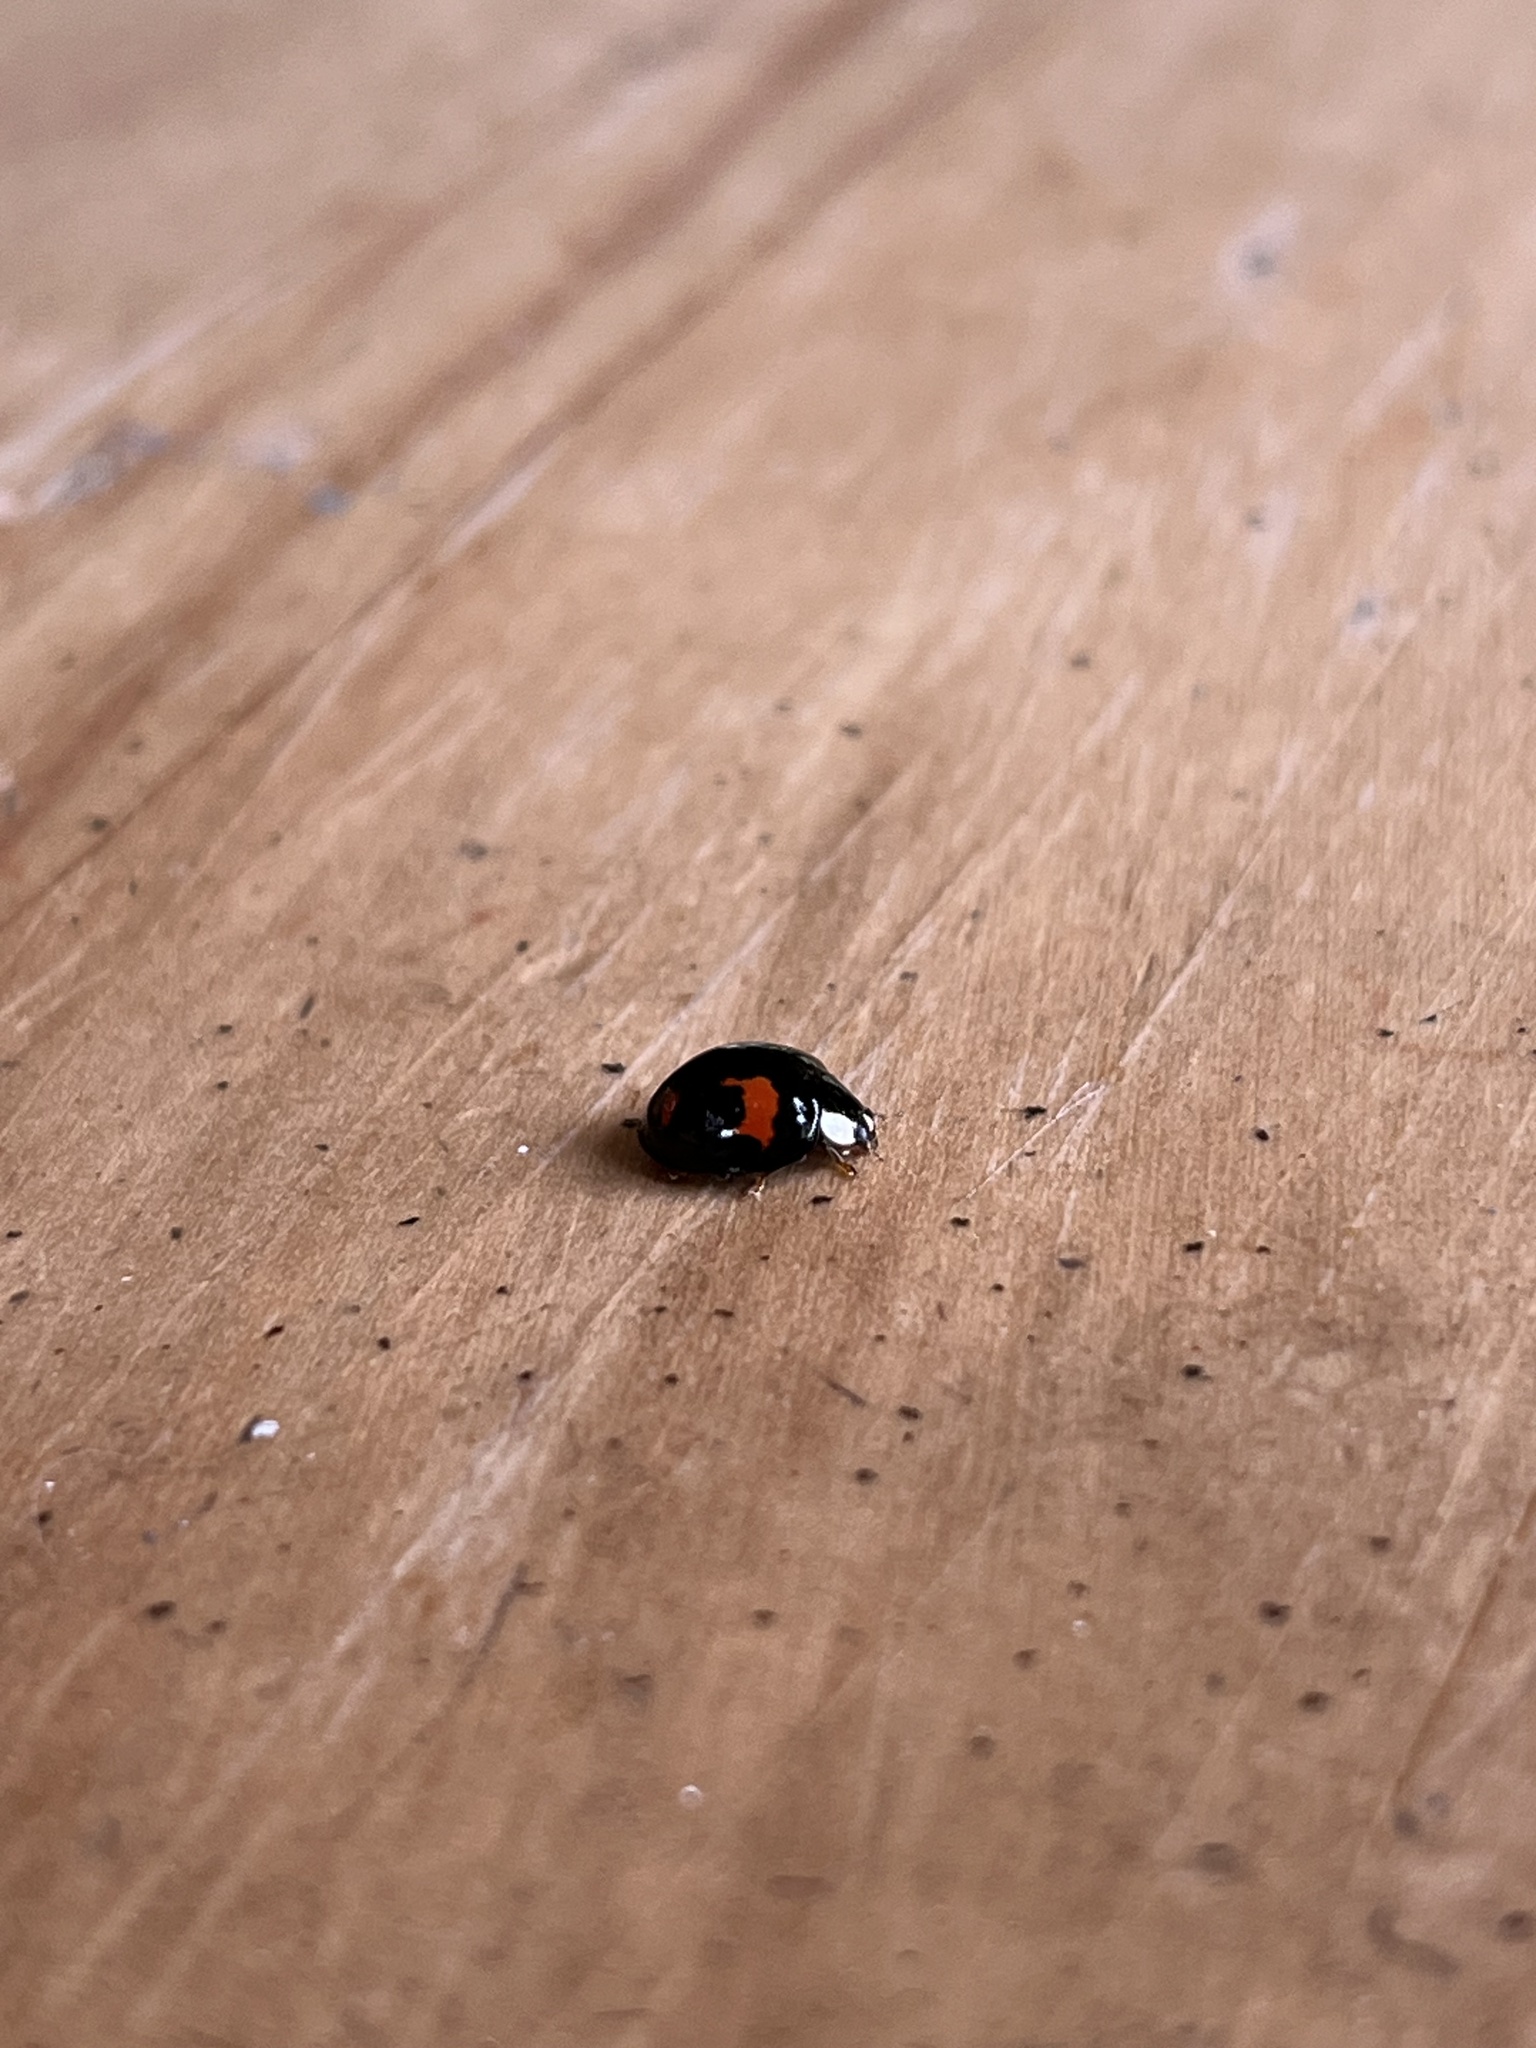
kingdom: Animalia
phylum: Arthropoda
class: Insecta
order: Coleoptera
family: Coccinellidae
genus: Harmonia
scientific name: Harmonia axyridis
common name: Harlequin ladybird
